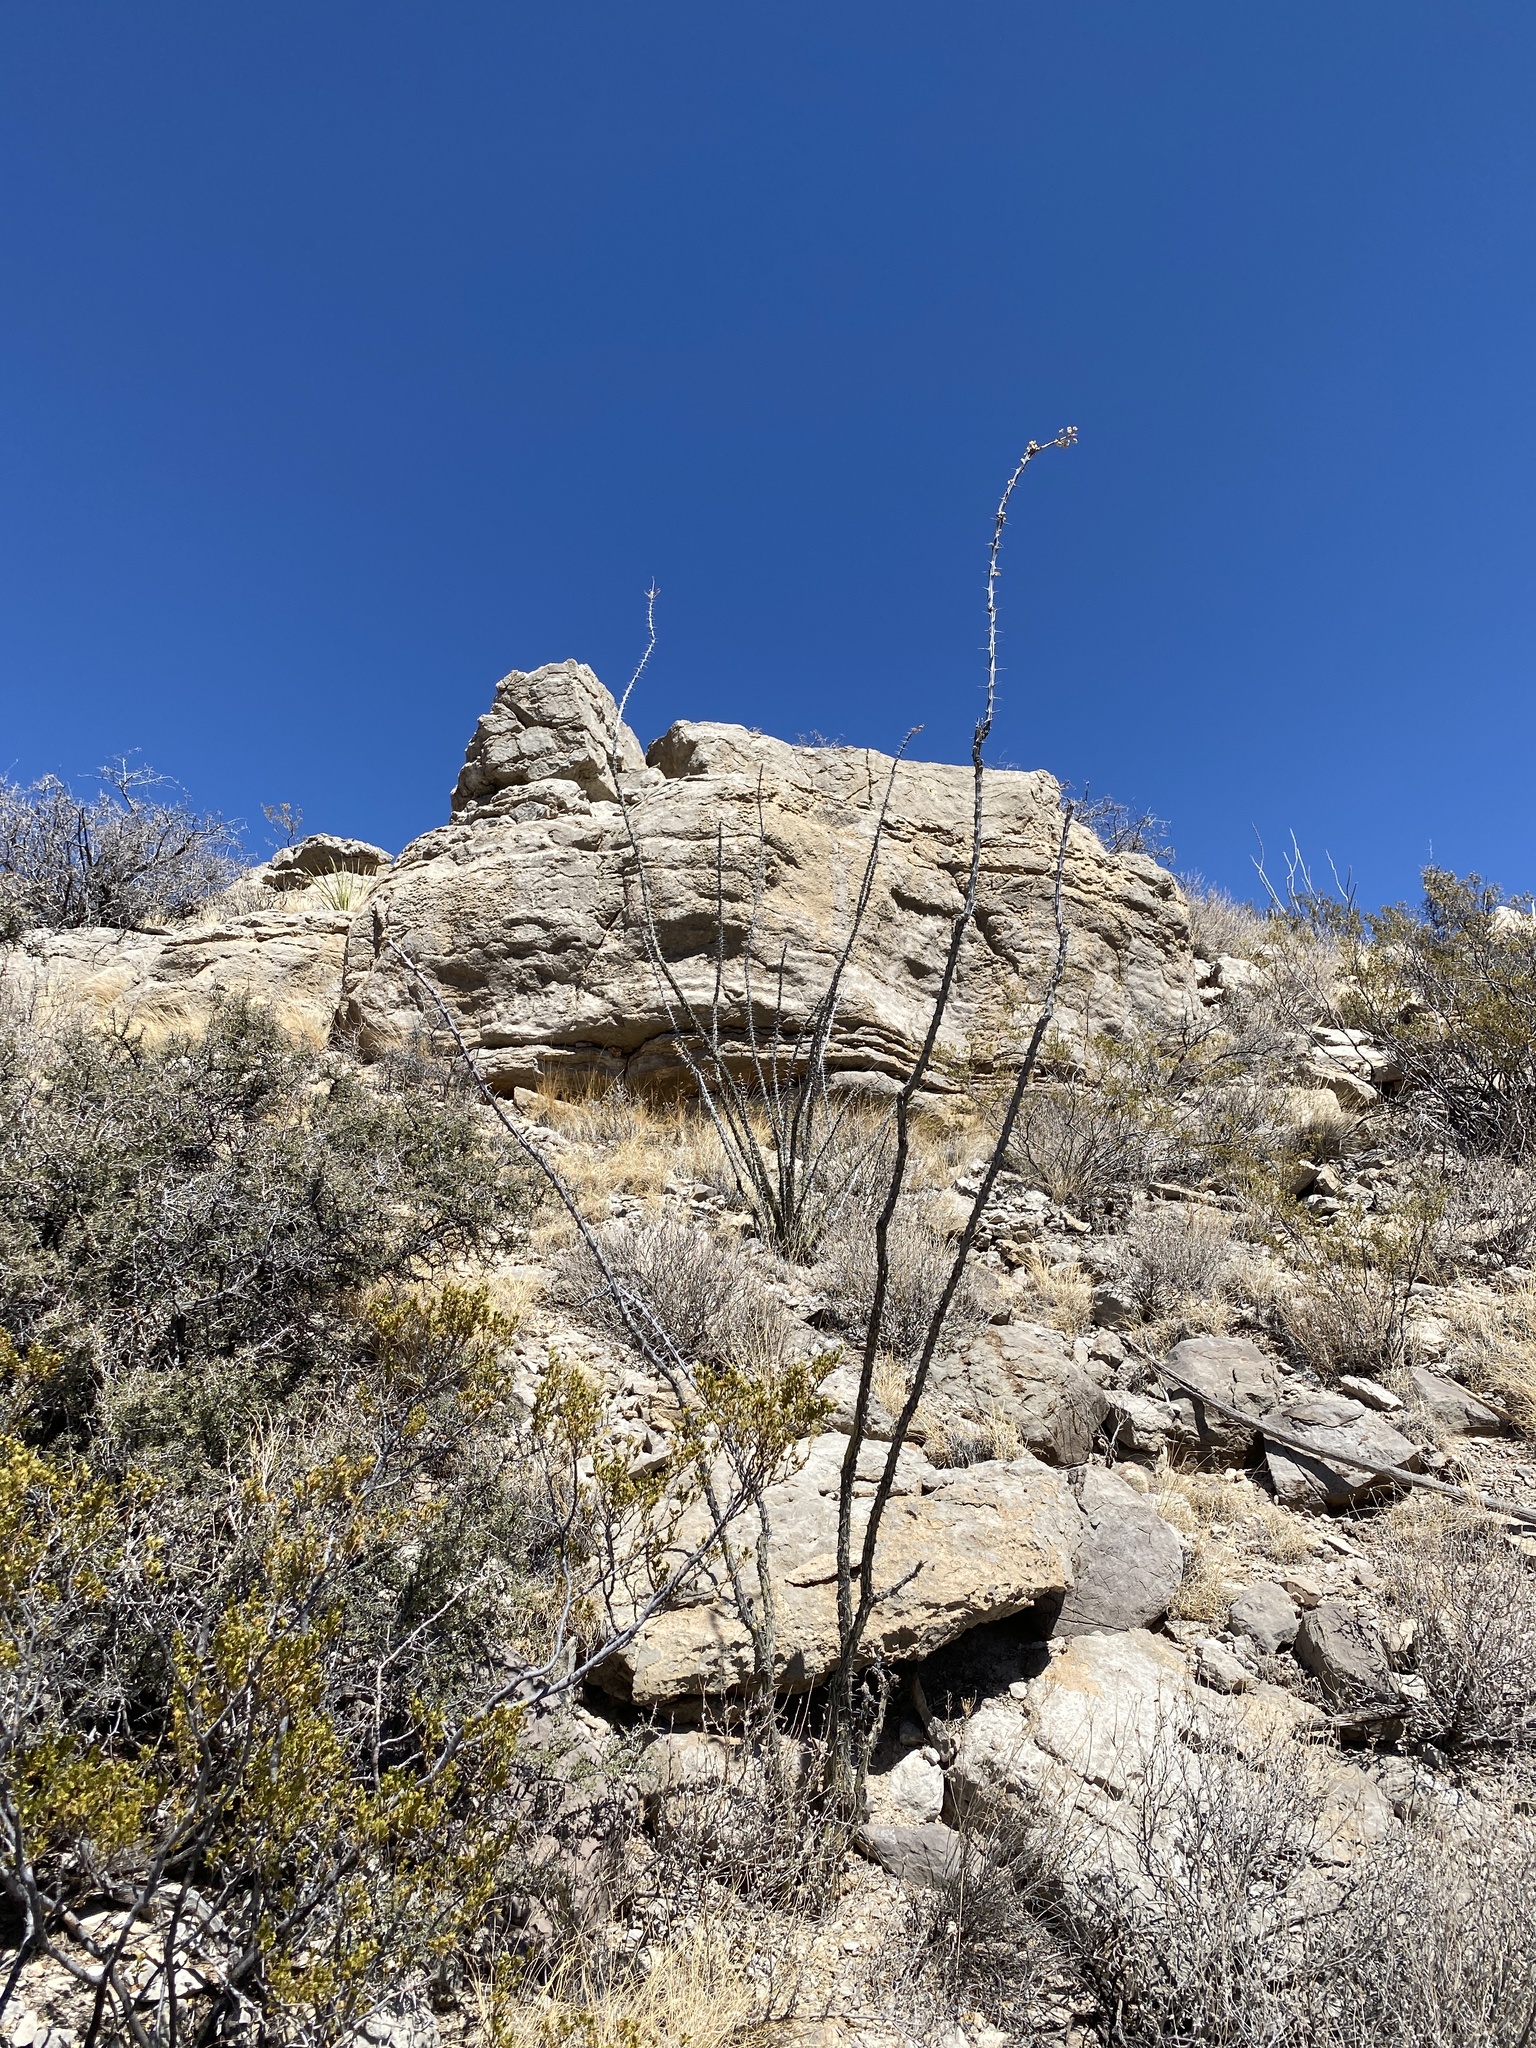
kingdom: Plantae
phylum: Tracheophyta
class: Magnoliopsida
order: Ericales
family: Fouquieriaceae
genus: Fouquieria
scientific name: Fouquieria splendens
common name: Vine-cactus
